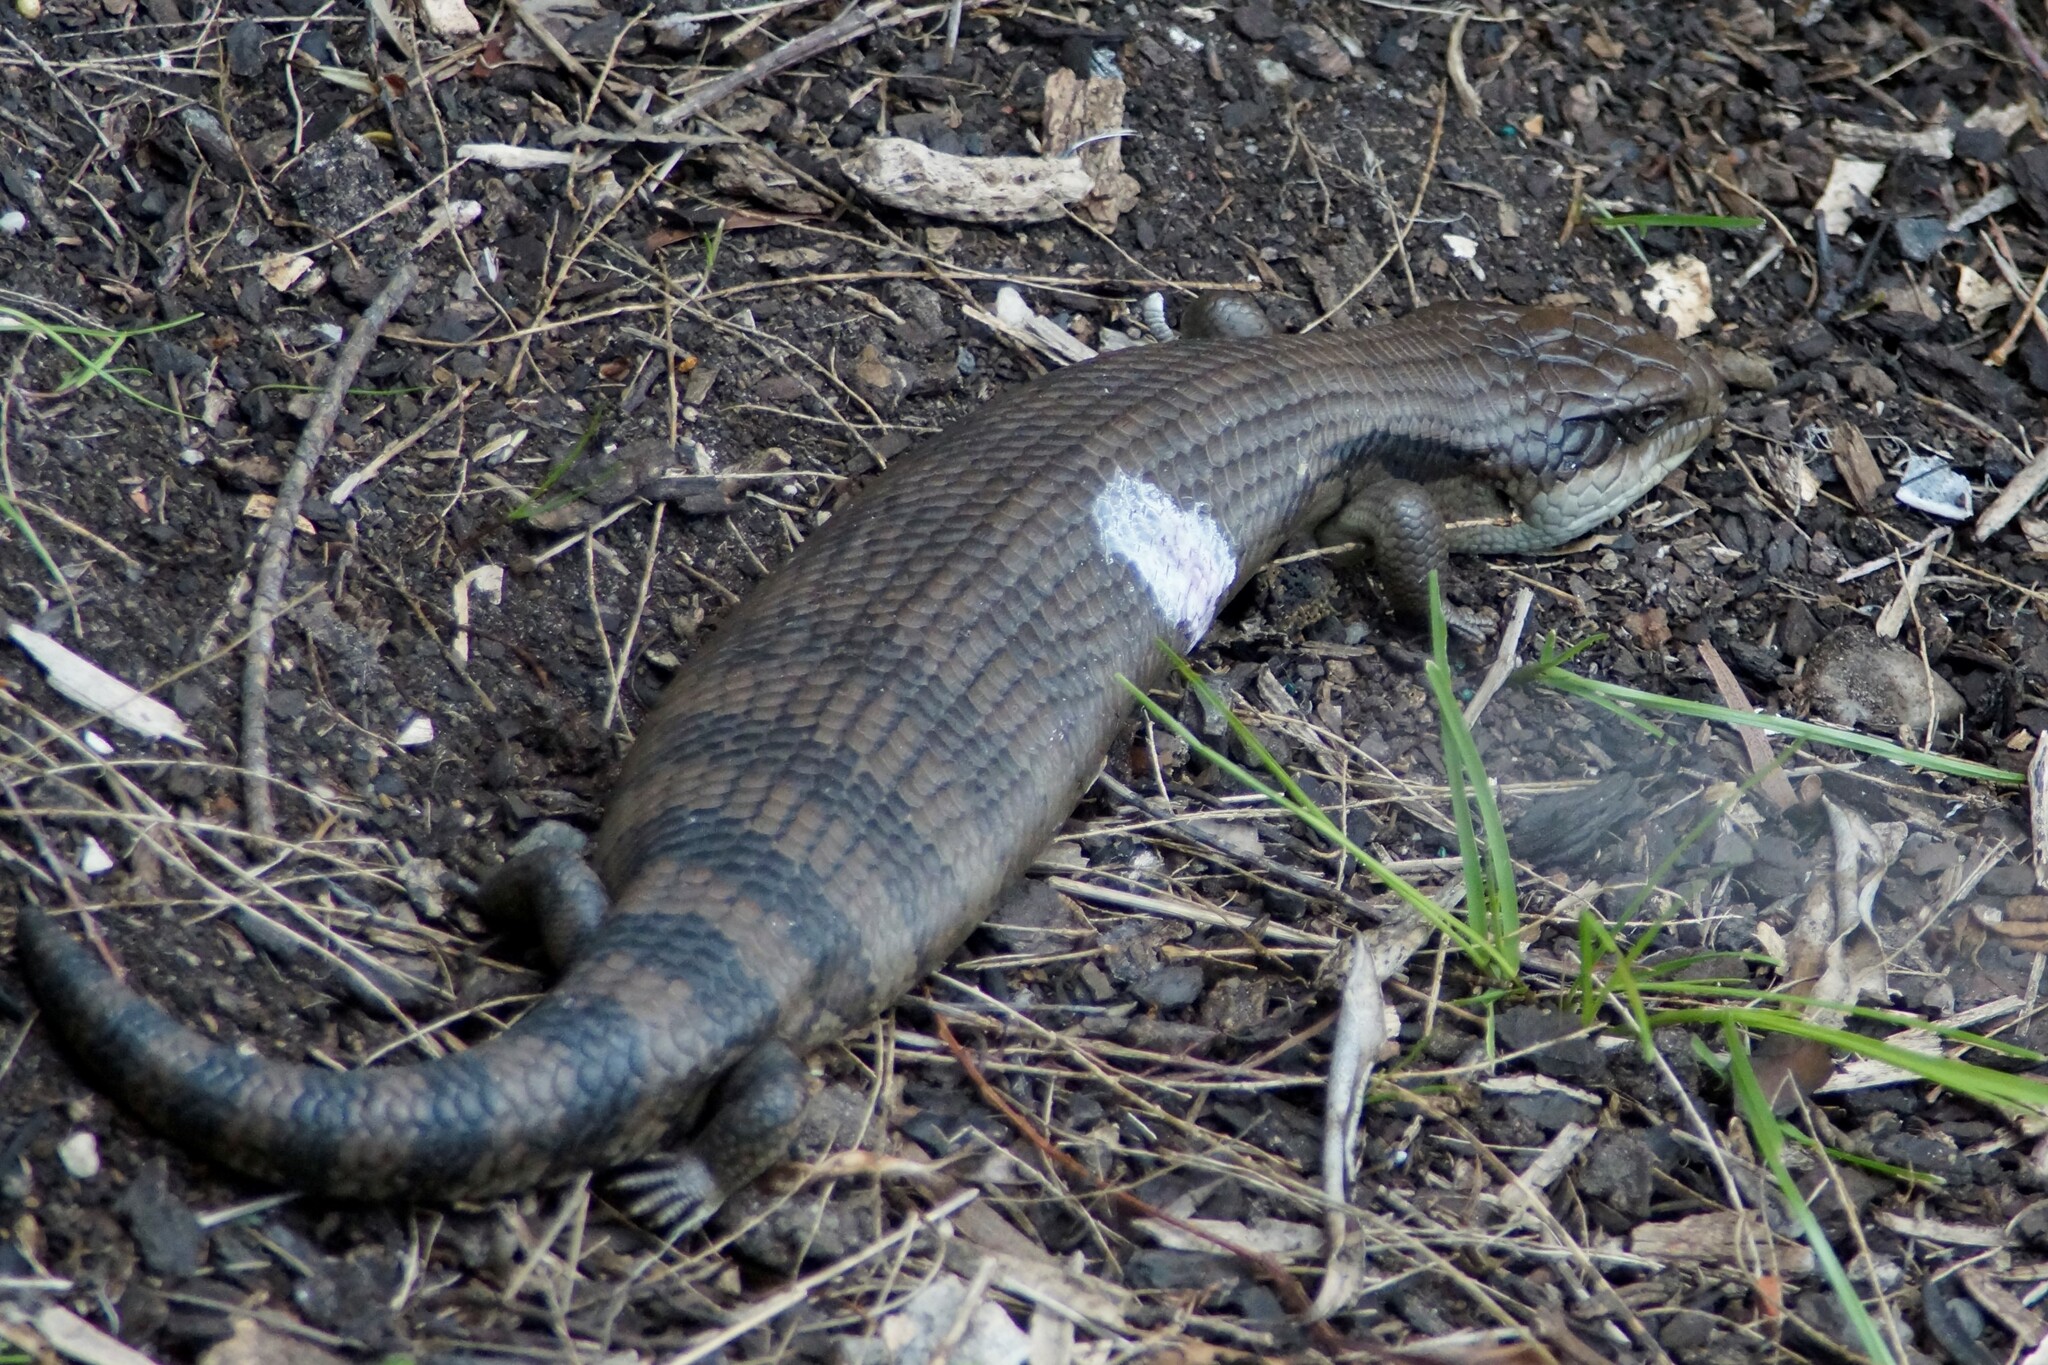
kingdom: Animalia
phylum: Chordata
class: Squamata
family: Scincidae
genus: Tiliqua
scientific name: Tiliqua scincoides
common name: Common bluetongue
